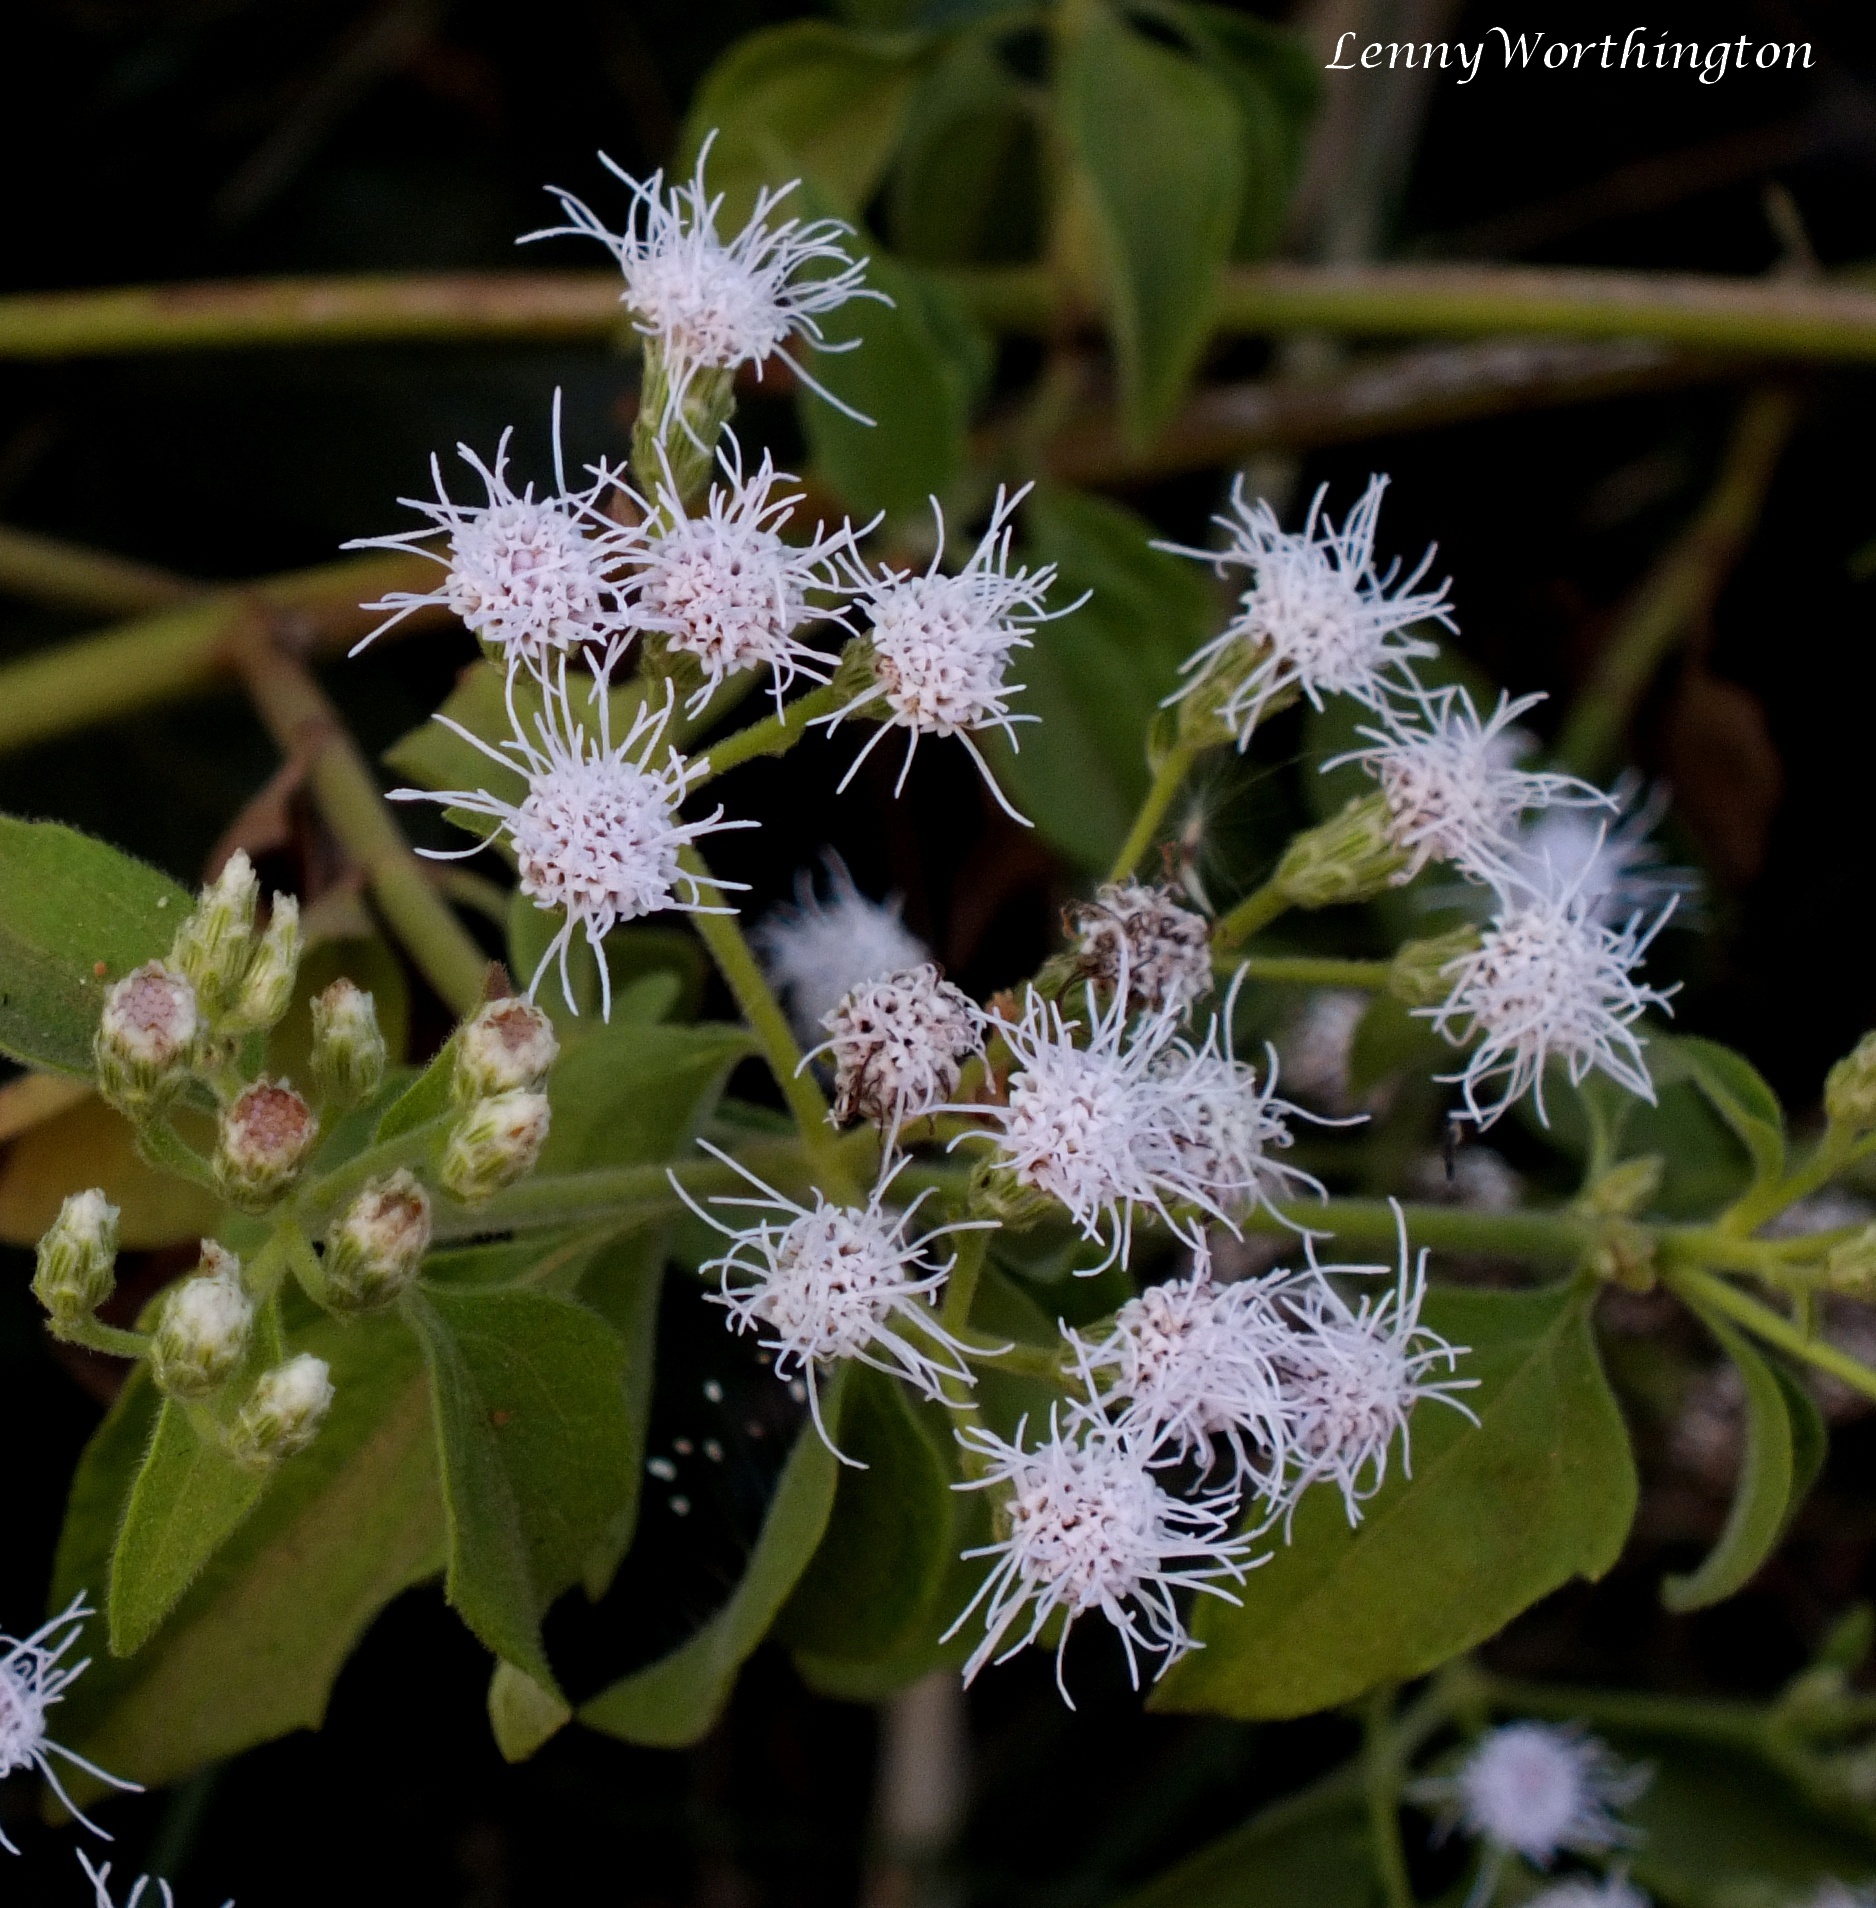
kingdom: Plantae
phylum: Tracheophyta
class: Magnoliopsida
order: Asterales
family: Asteraceae
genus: Chromolaena
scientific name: Chromolaena odorata
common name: Siamweed
